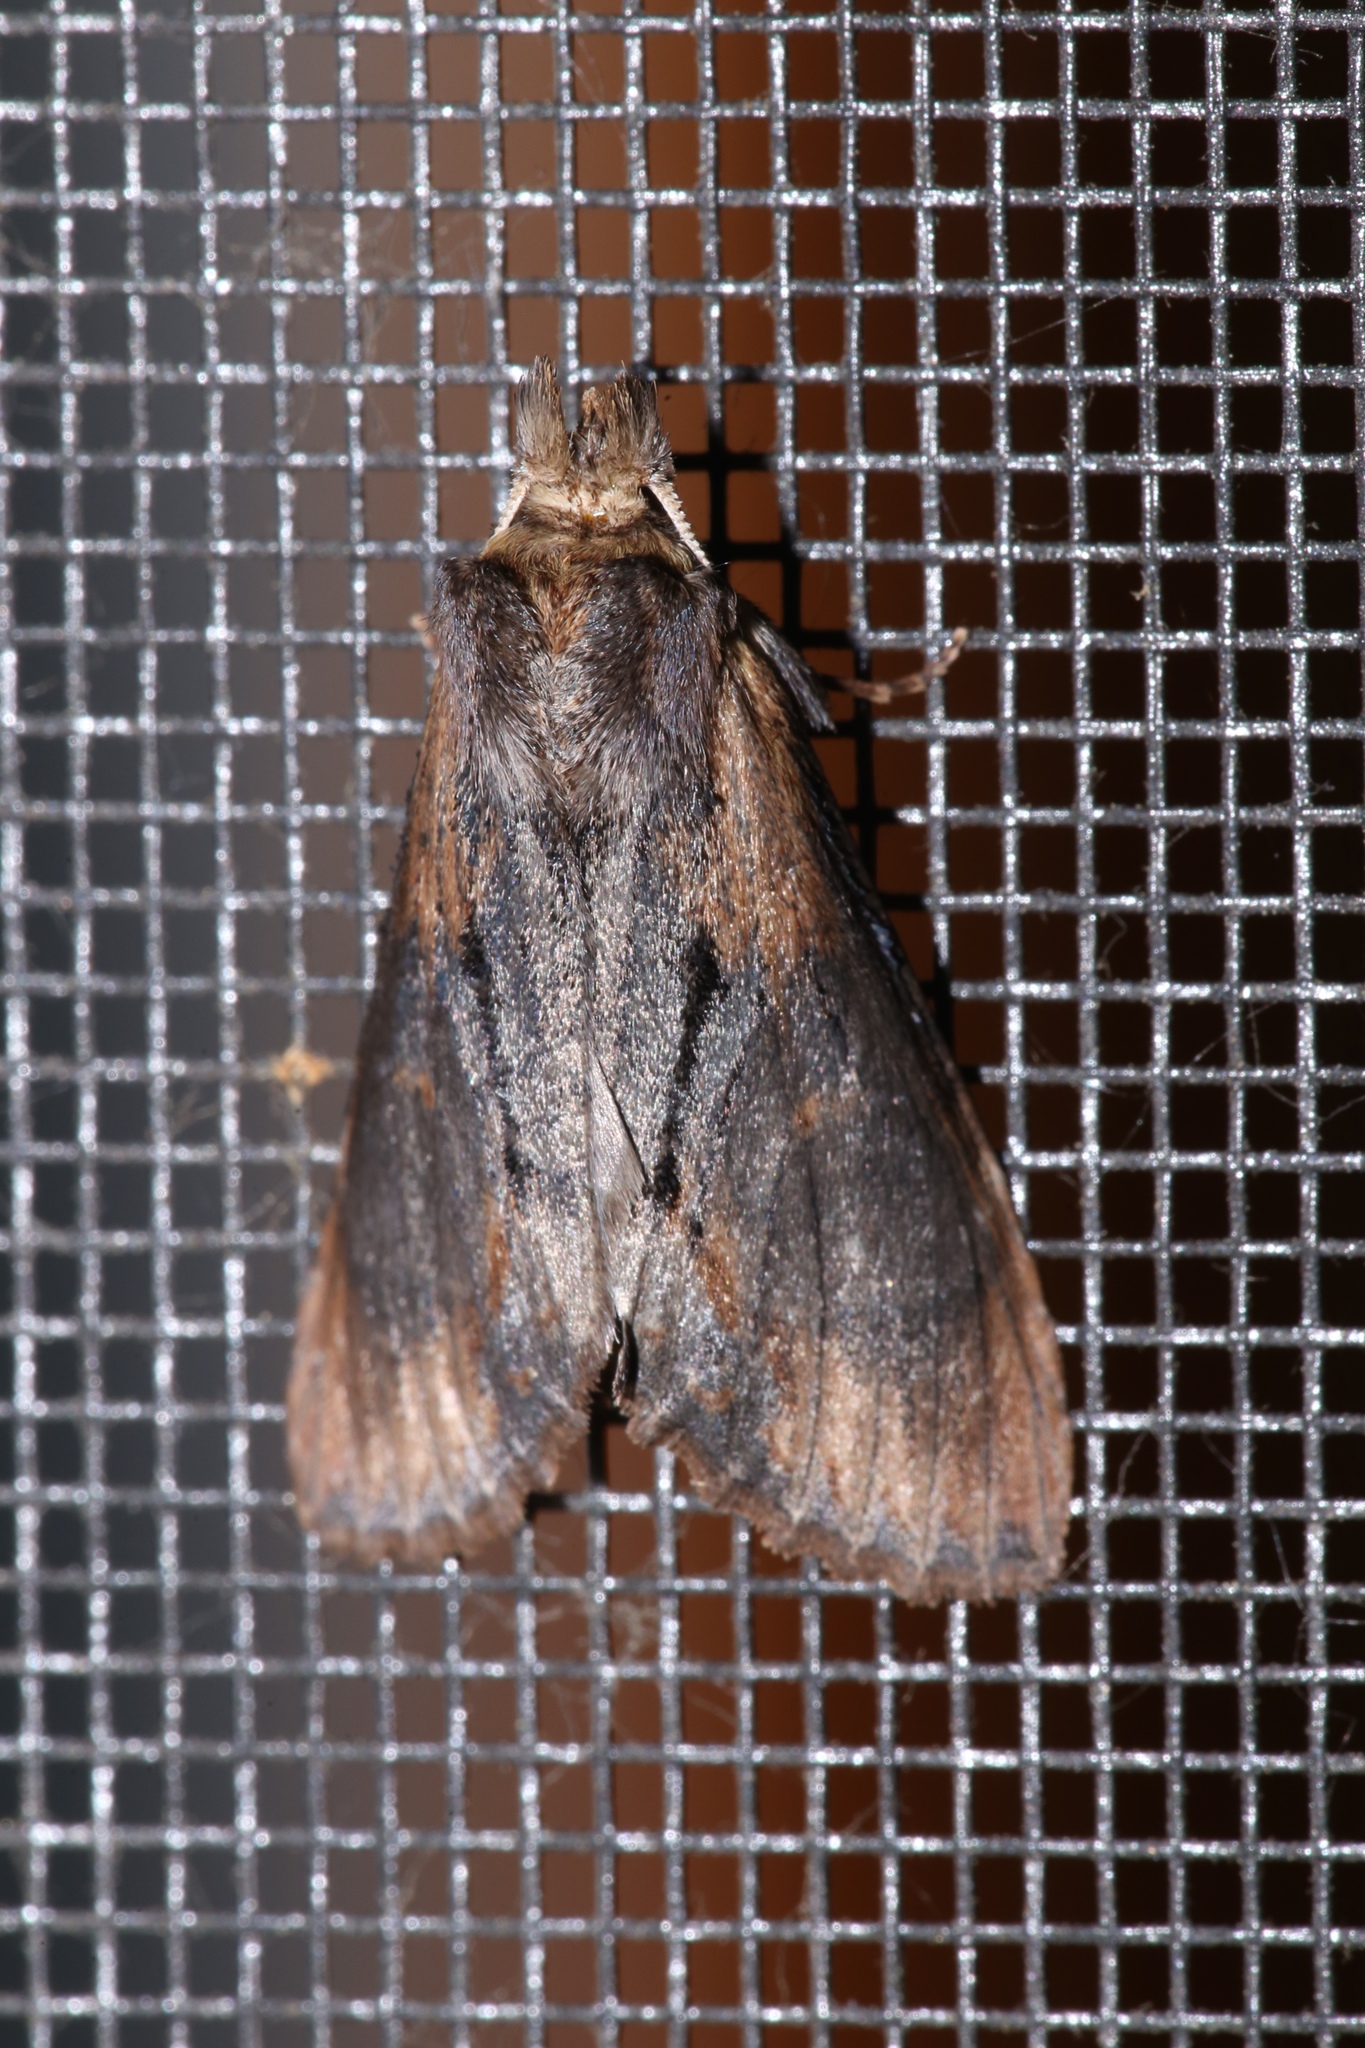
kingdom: Animalia
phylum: Arthropoda
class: Insecta
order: Lepidoptera
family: Notodontidae
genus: Dasylophia
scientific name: Dasylophia thyatiroides
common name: Gray-patched prominent
